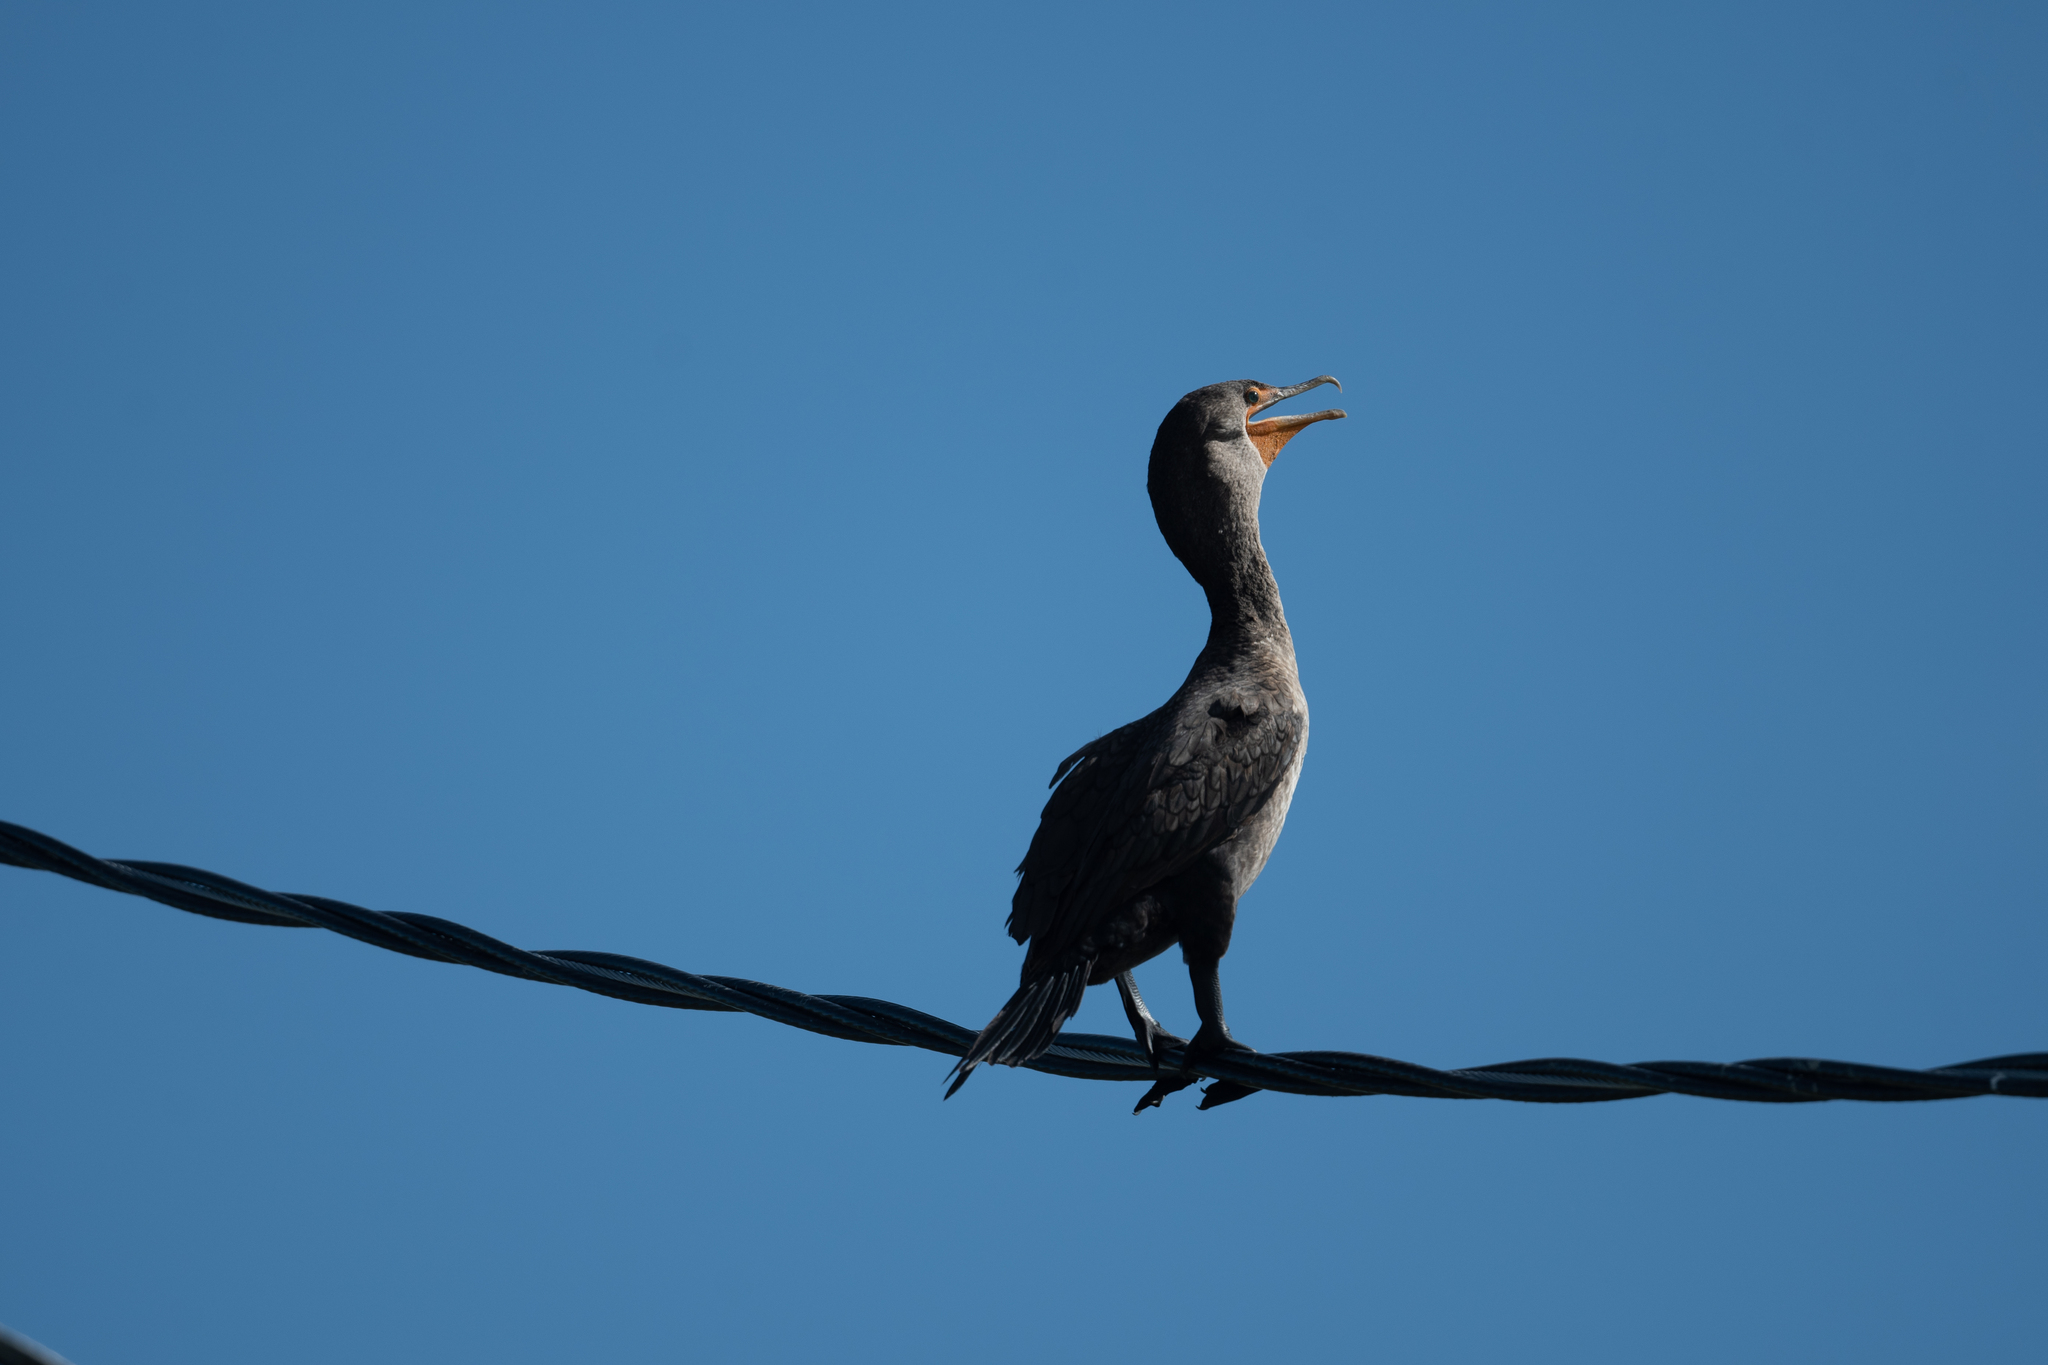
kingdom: Animalia
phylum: Chordata
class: Aves
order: Suliformes
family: Phalacrocoracidae
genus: Phalacrocorax
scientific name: Phalacrocorax auritus
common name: Double-crested cormorant
